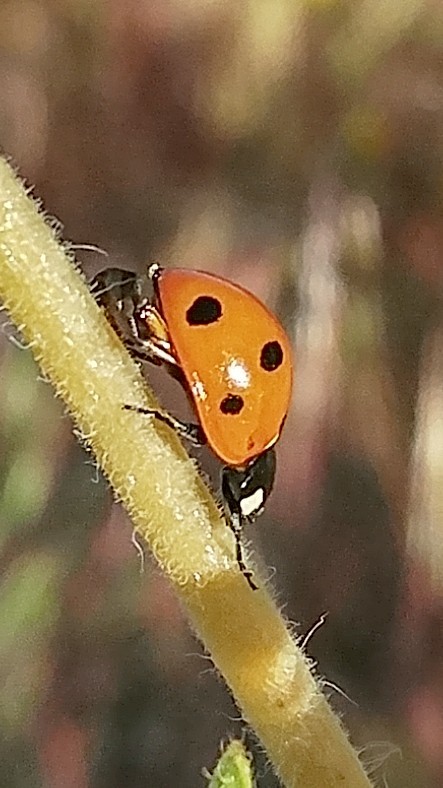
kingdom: Animalia
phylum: Arthropoda
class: Insecta
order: Coleoptera
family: Coccinellidae
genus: Coccinella
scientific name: Coccinella septempunctata
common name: Sevenspotted lady beetle
